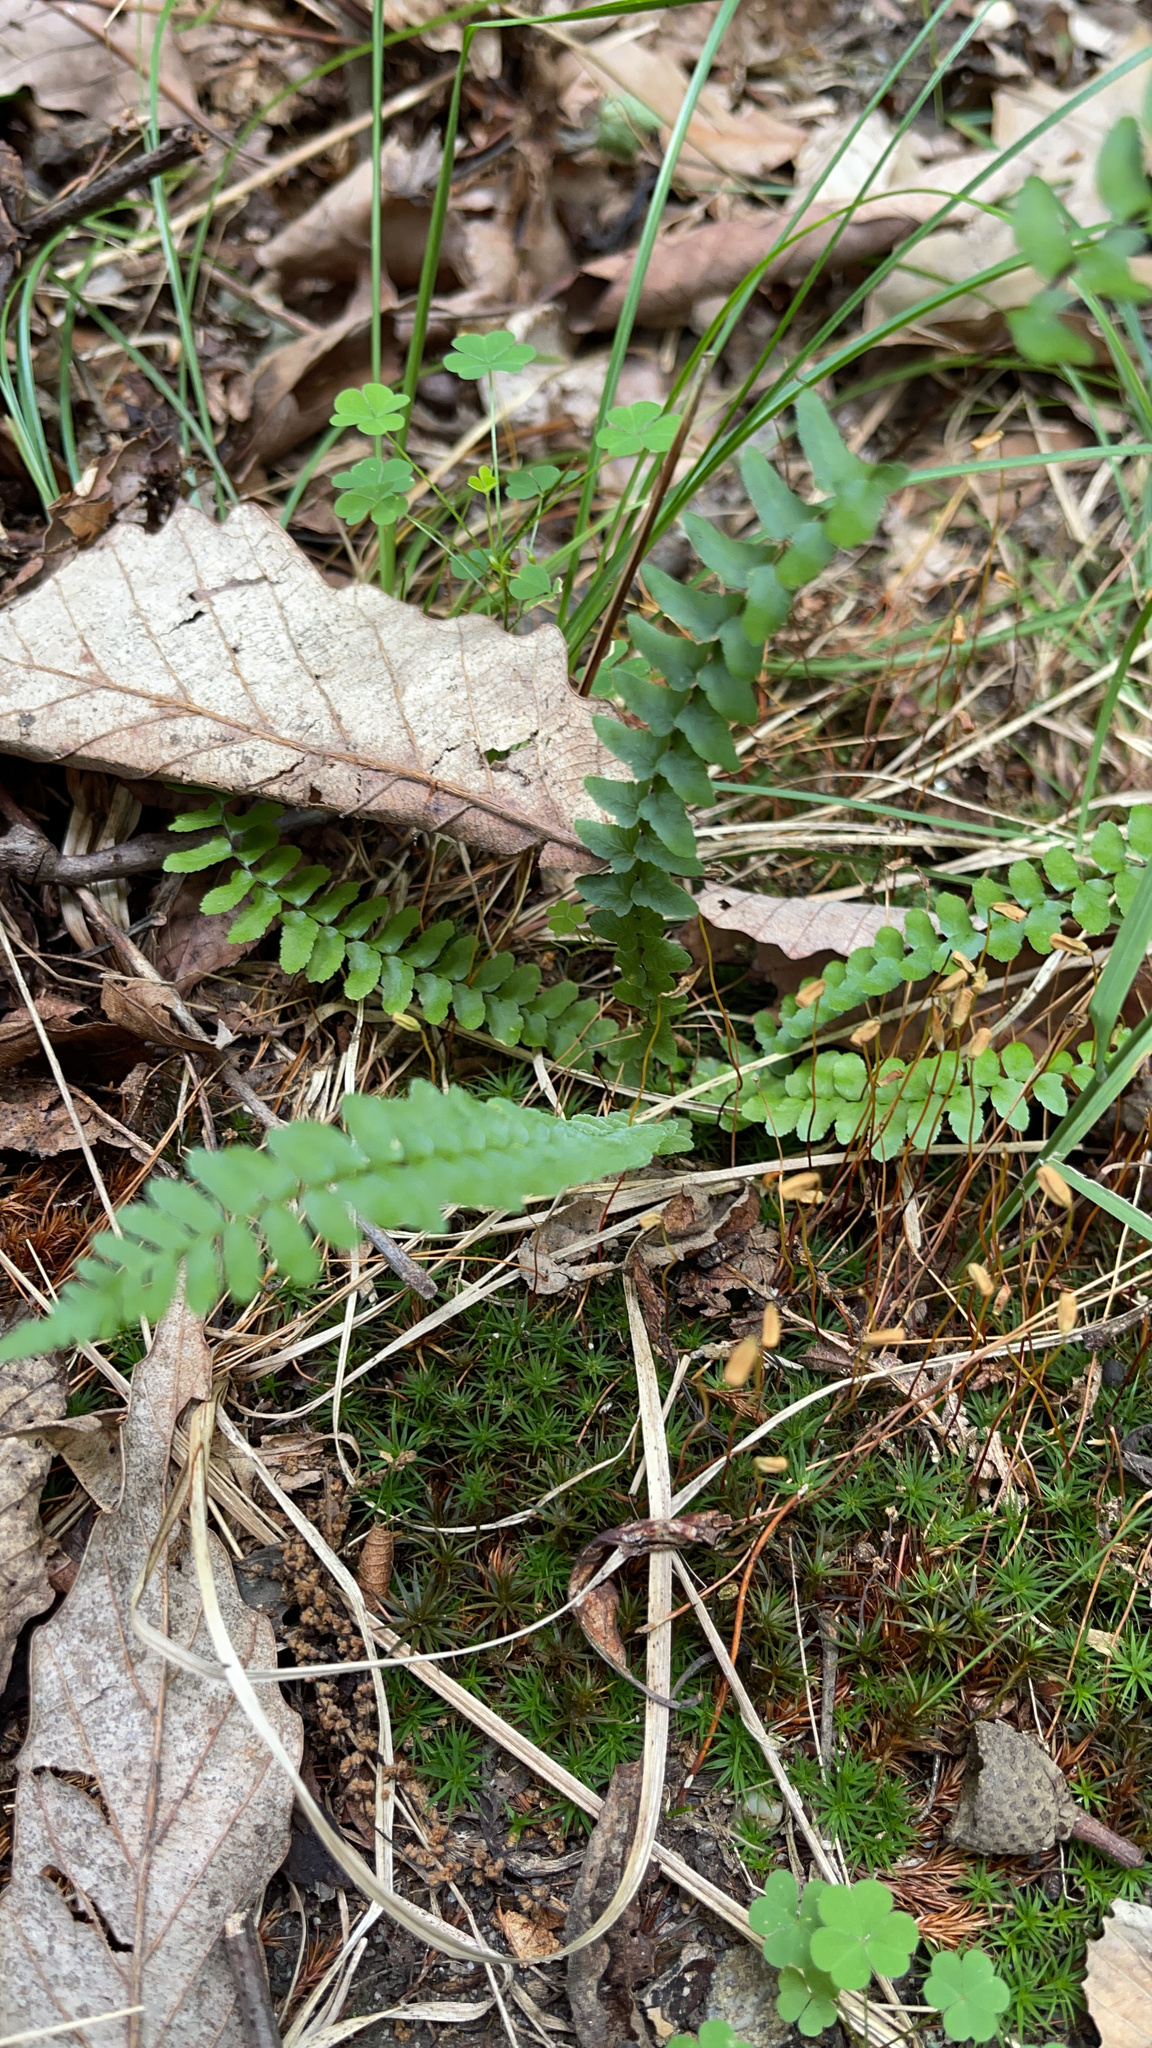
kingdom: Plantae
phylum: Tracheophyta
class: Polypodiopsida
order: Polypodiales
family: Aspleniaceae
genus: Asplenium
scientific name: Asplenium platyneuron
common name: Ebony spleenwort
